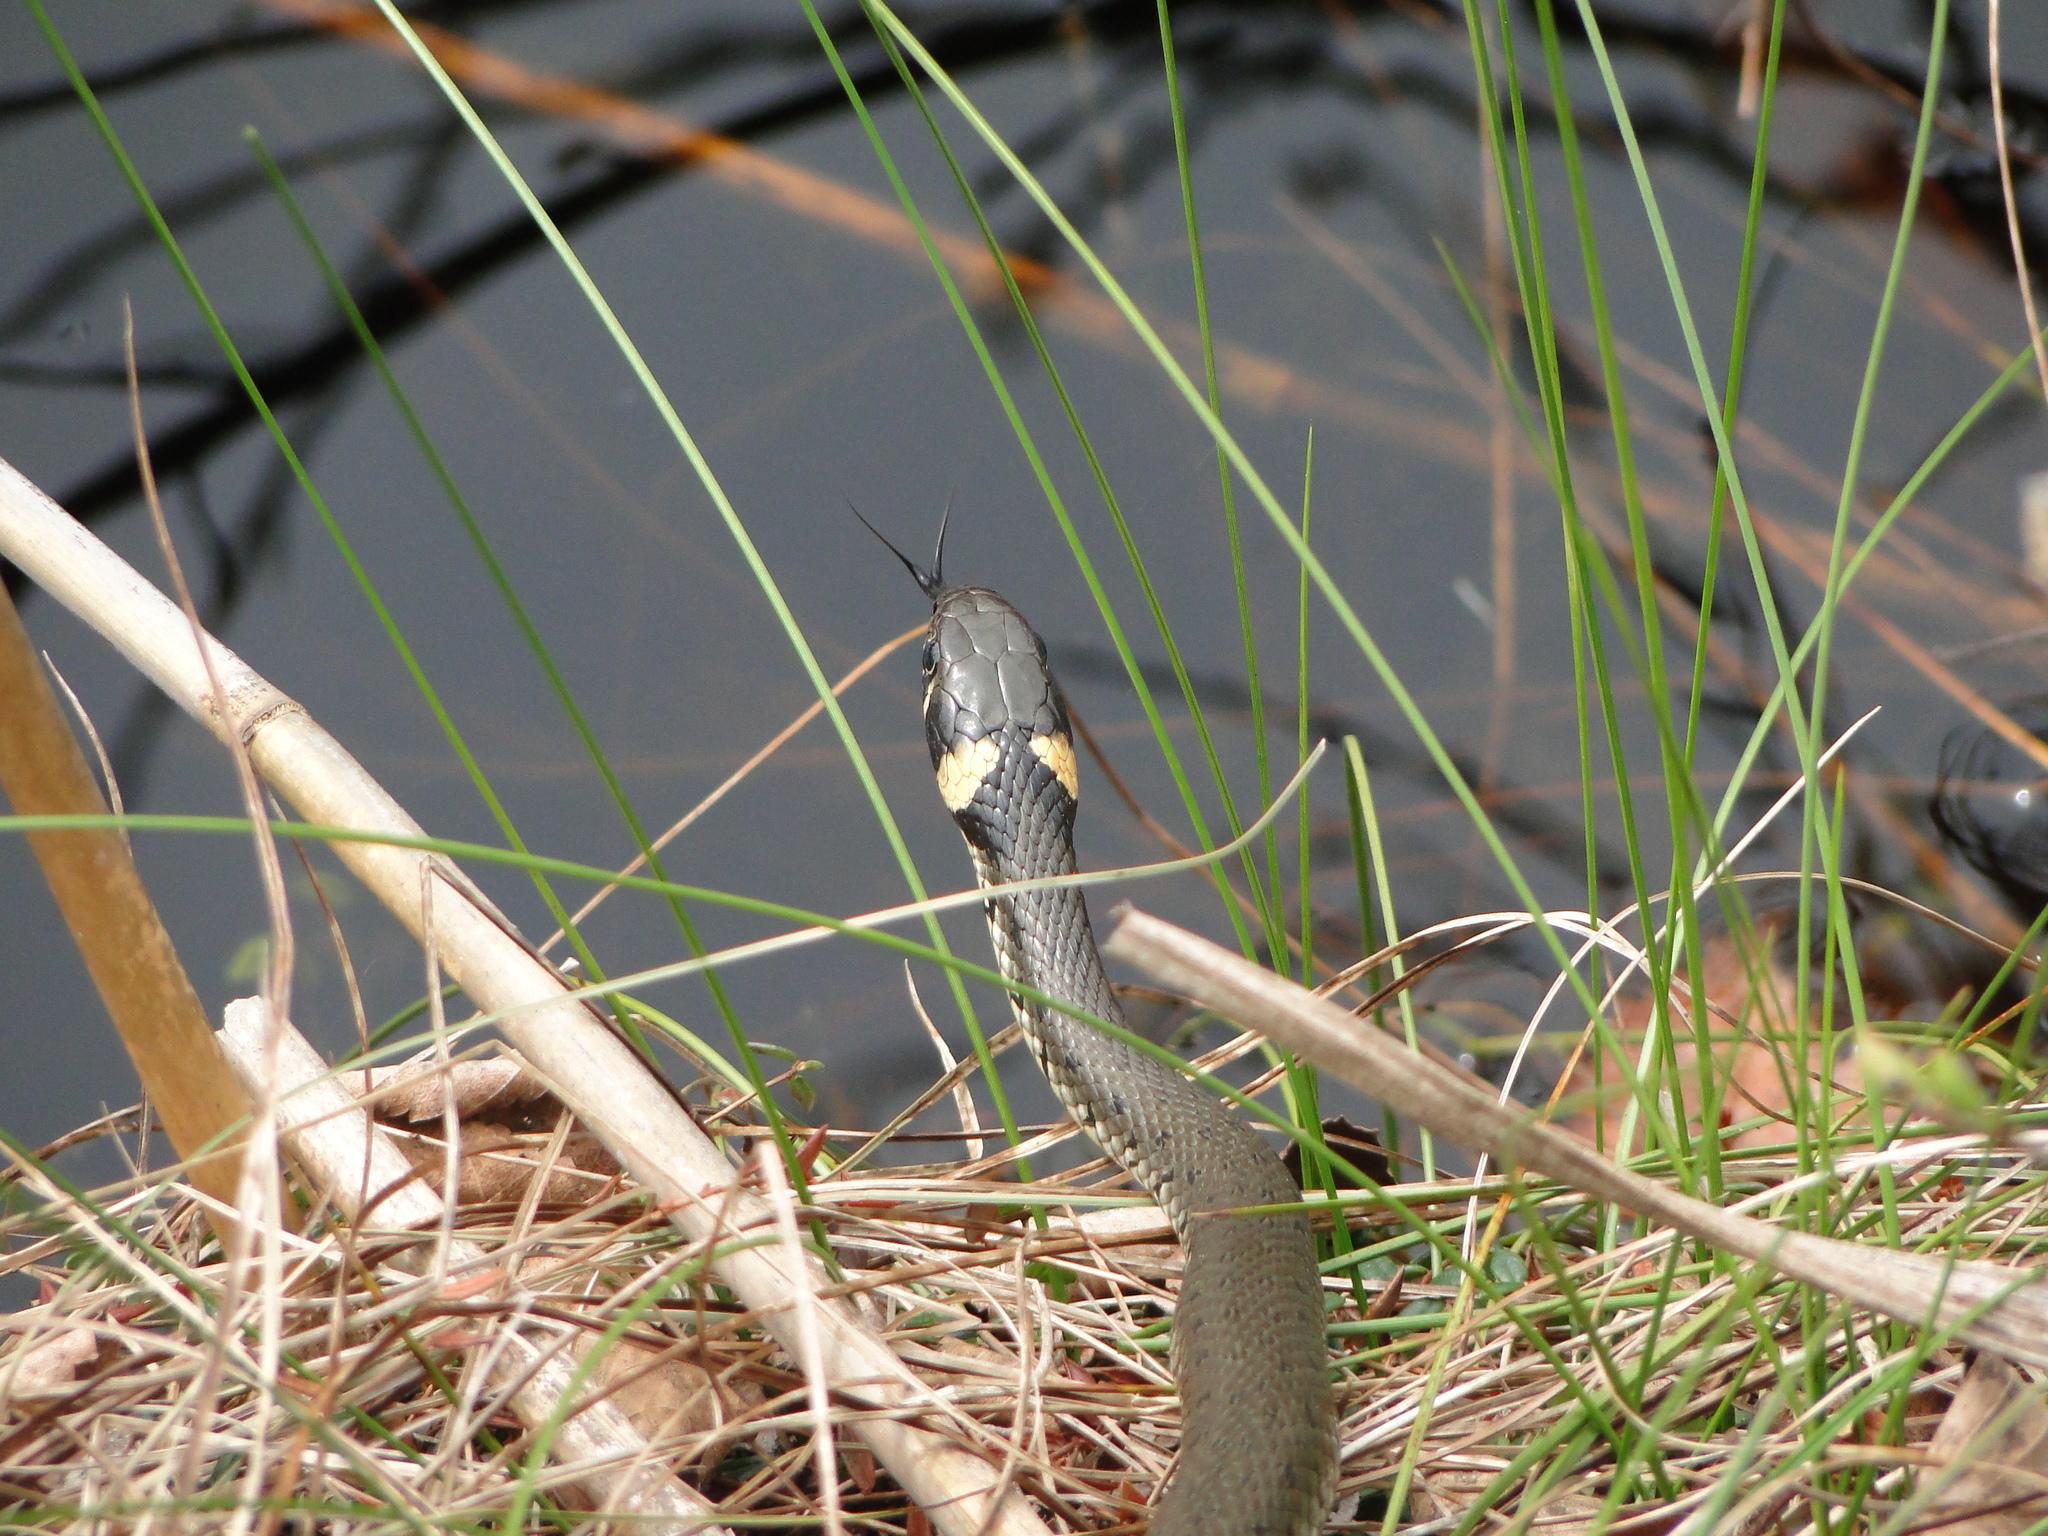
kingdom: Animalia
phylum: Chordata
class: Squamata
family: Colubridae
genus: Natrix
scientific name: Natrix natrix
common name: Grass snake
